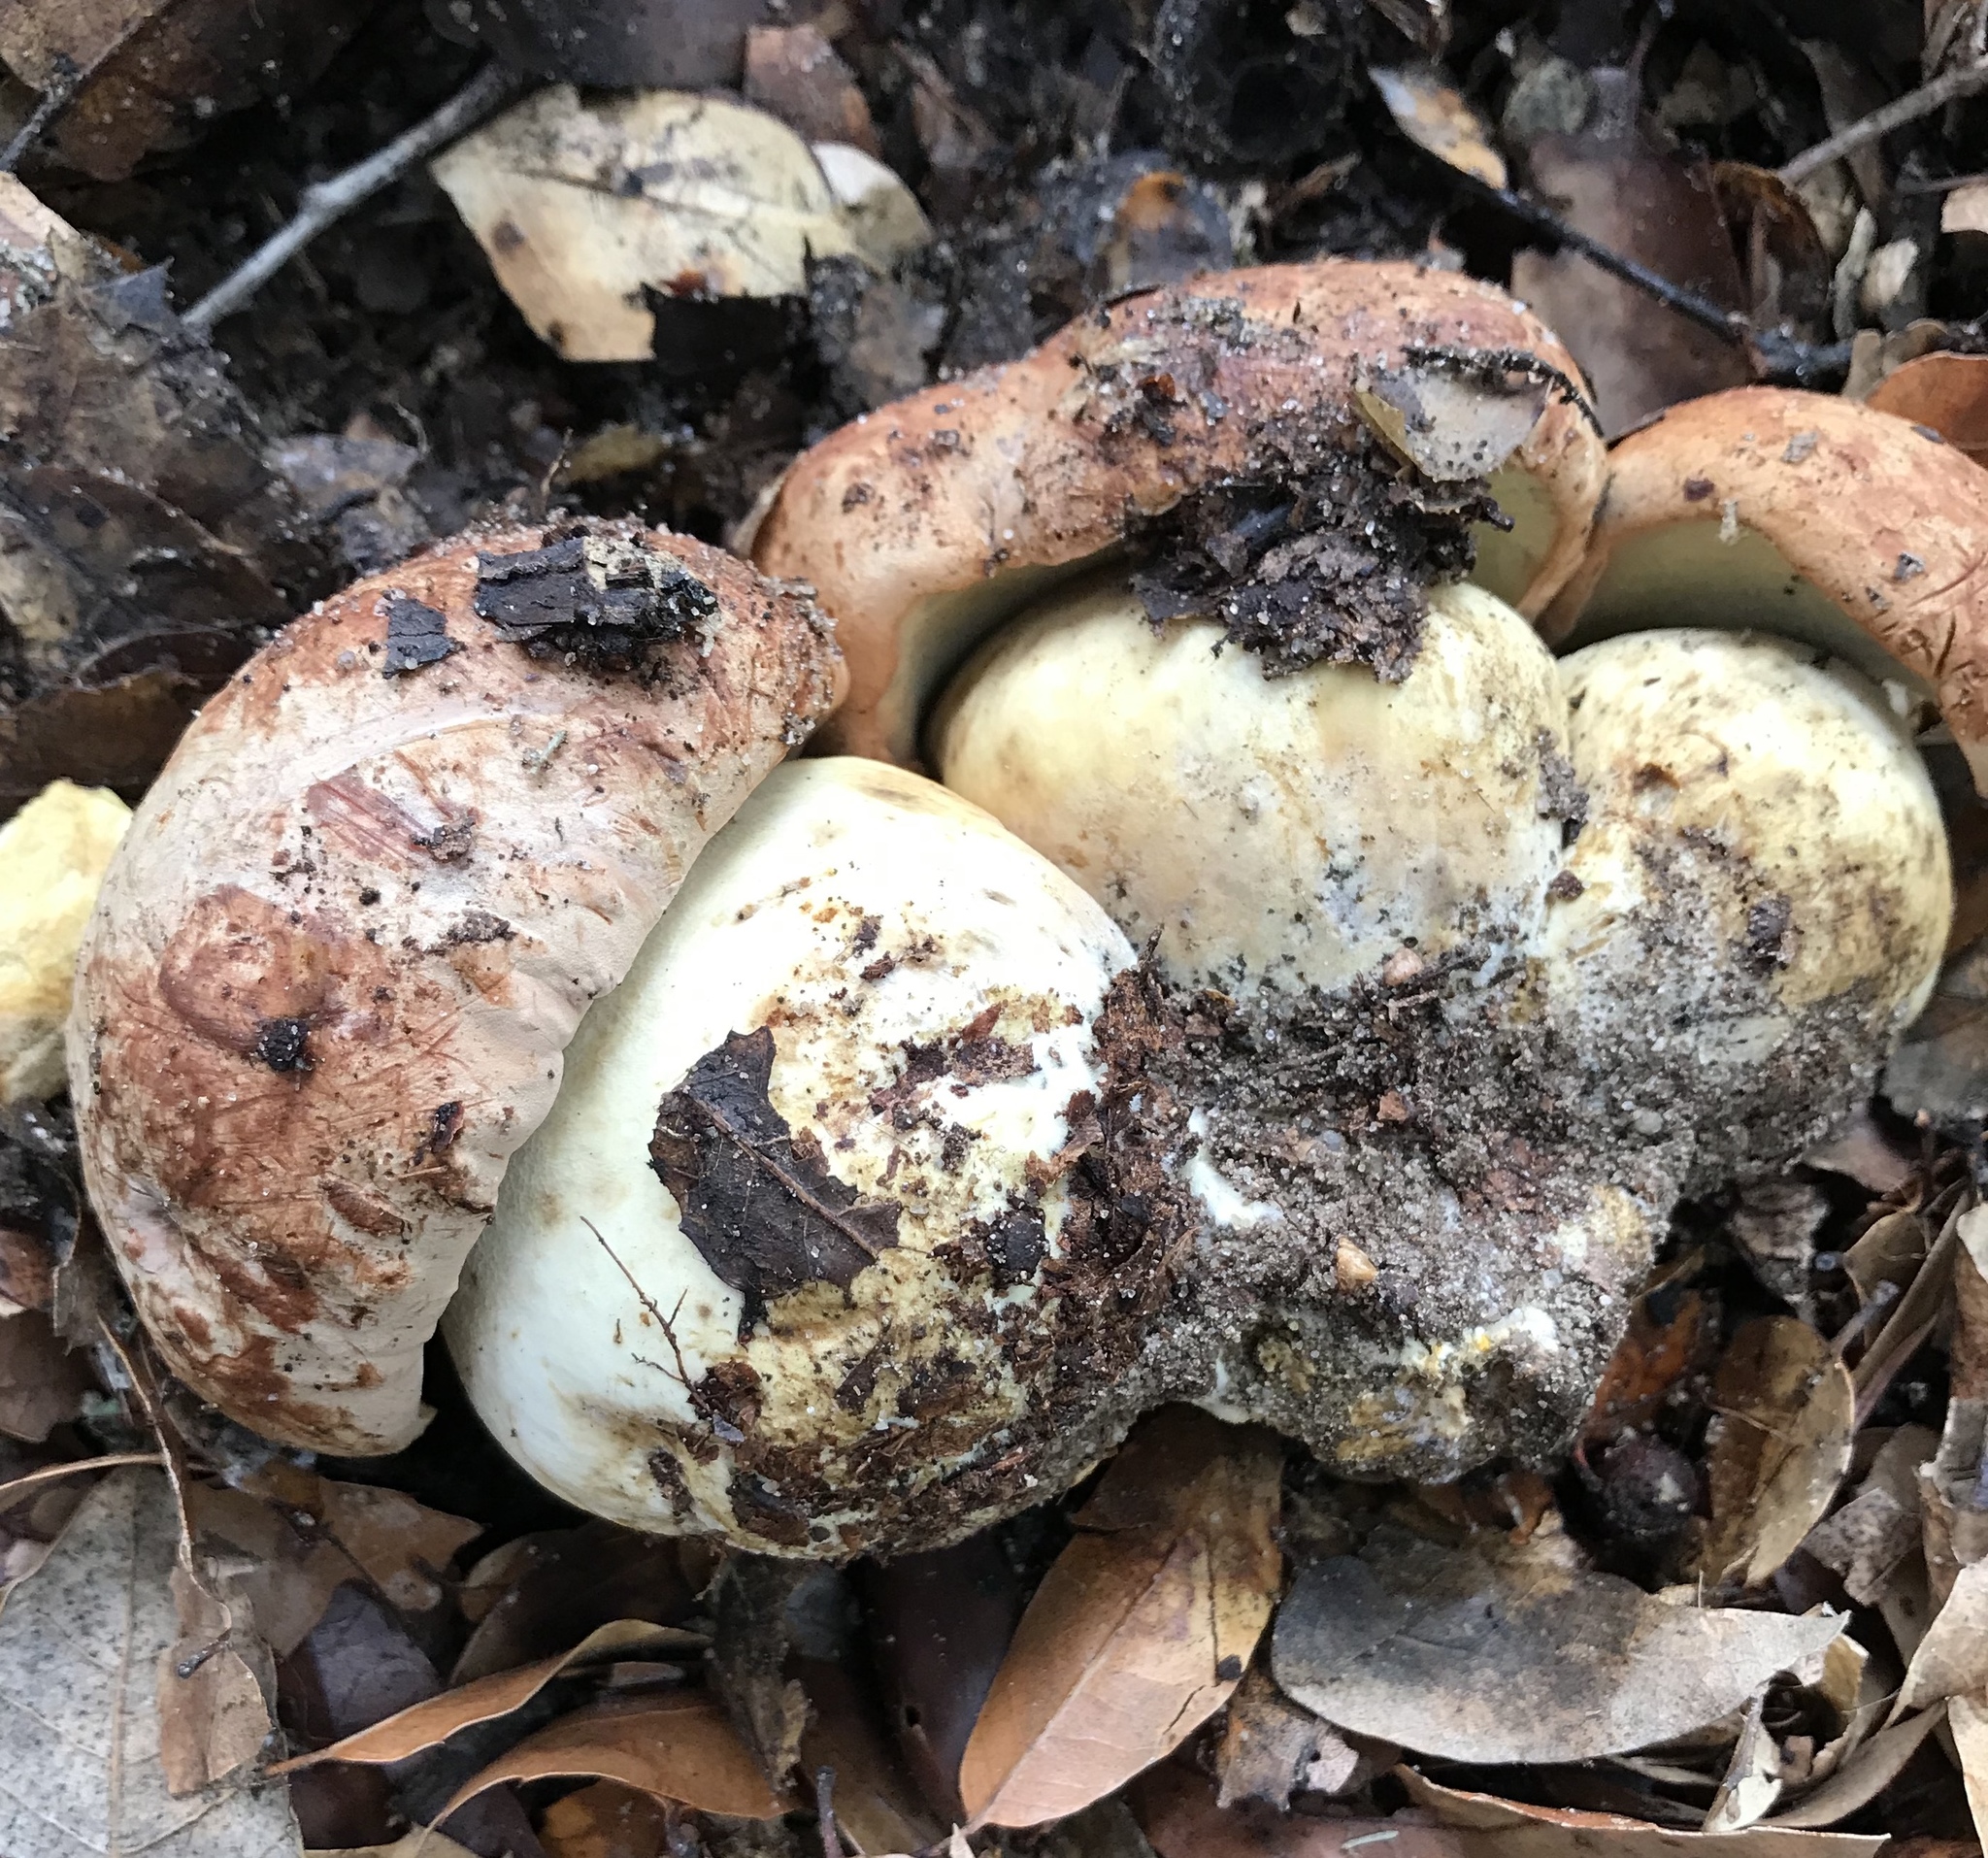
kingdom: Fungi
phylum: Basidiomycota
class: Agaricomycetes
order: Boletales
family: Boletaceae
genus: Boletus
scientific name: Boletus regineus
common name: Queen bolete
